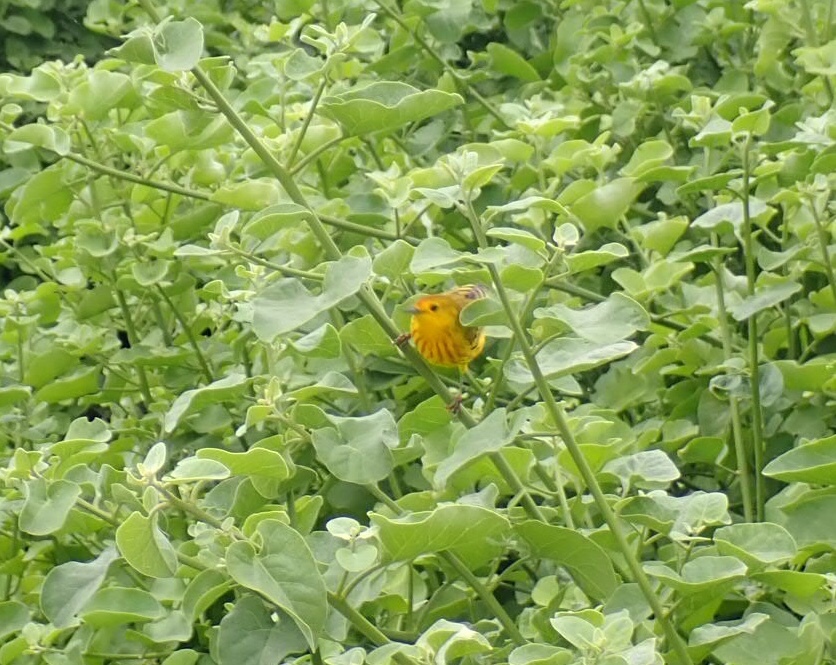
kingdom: Animalia
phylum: Chordata
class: Aves
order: Passeriformes
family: Parulidae
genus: Setophaga
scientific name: Setophaga petechia
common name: Yellow warbler
